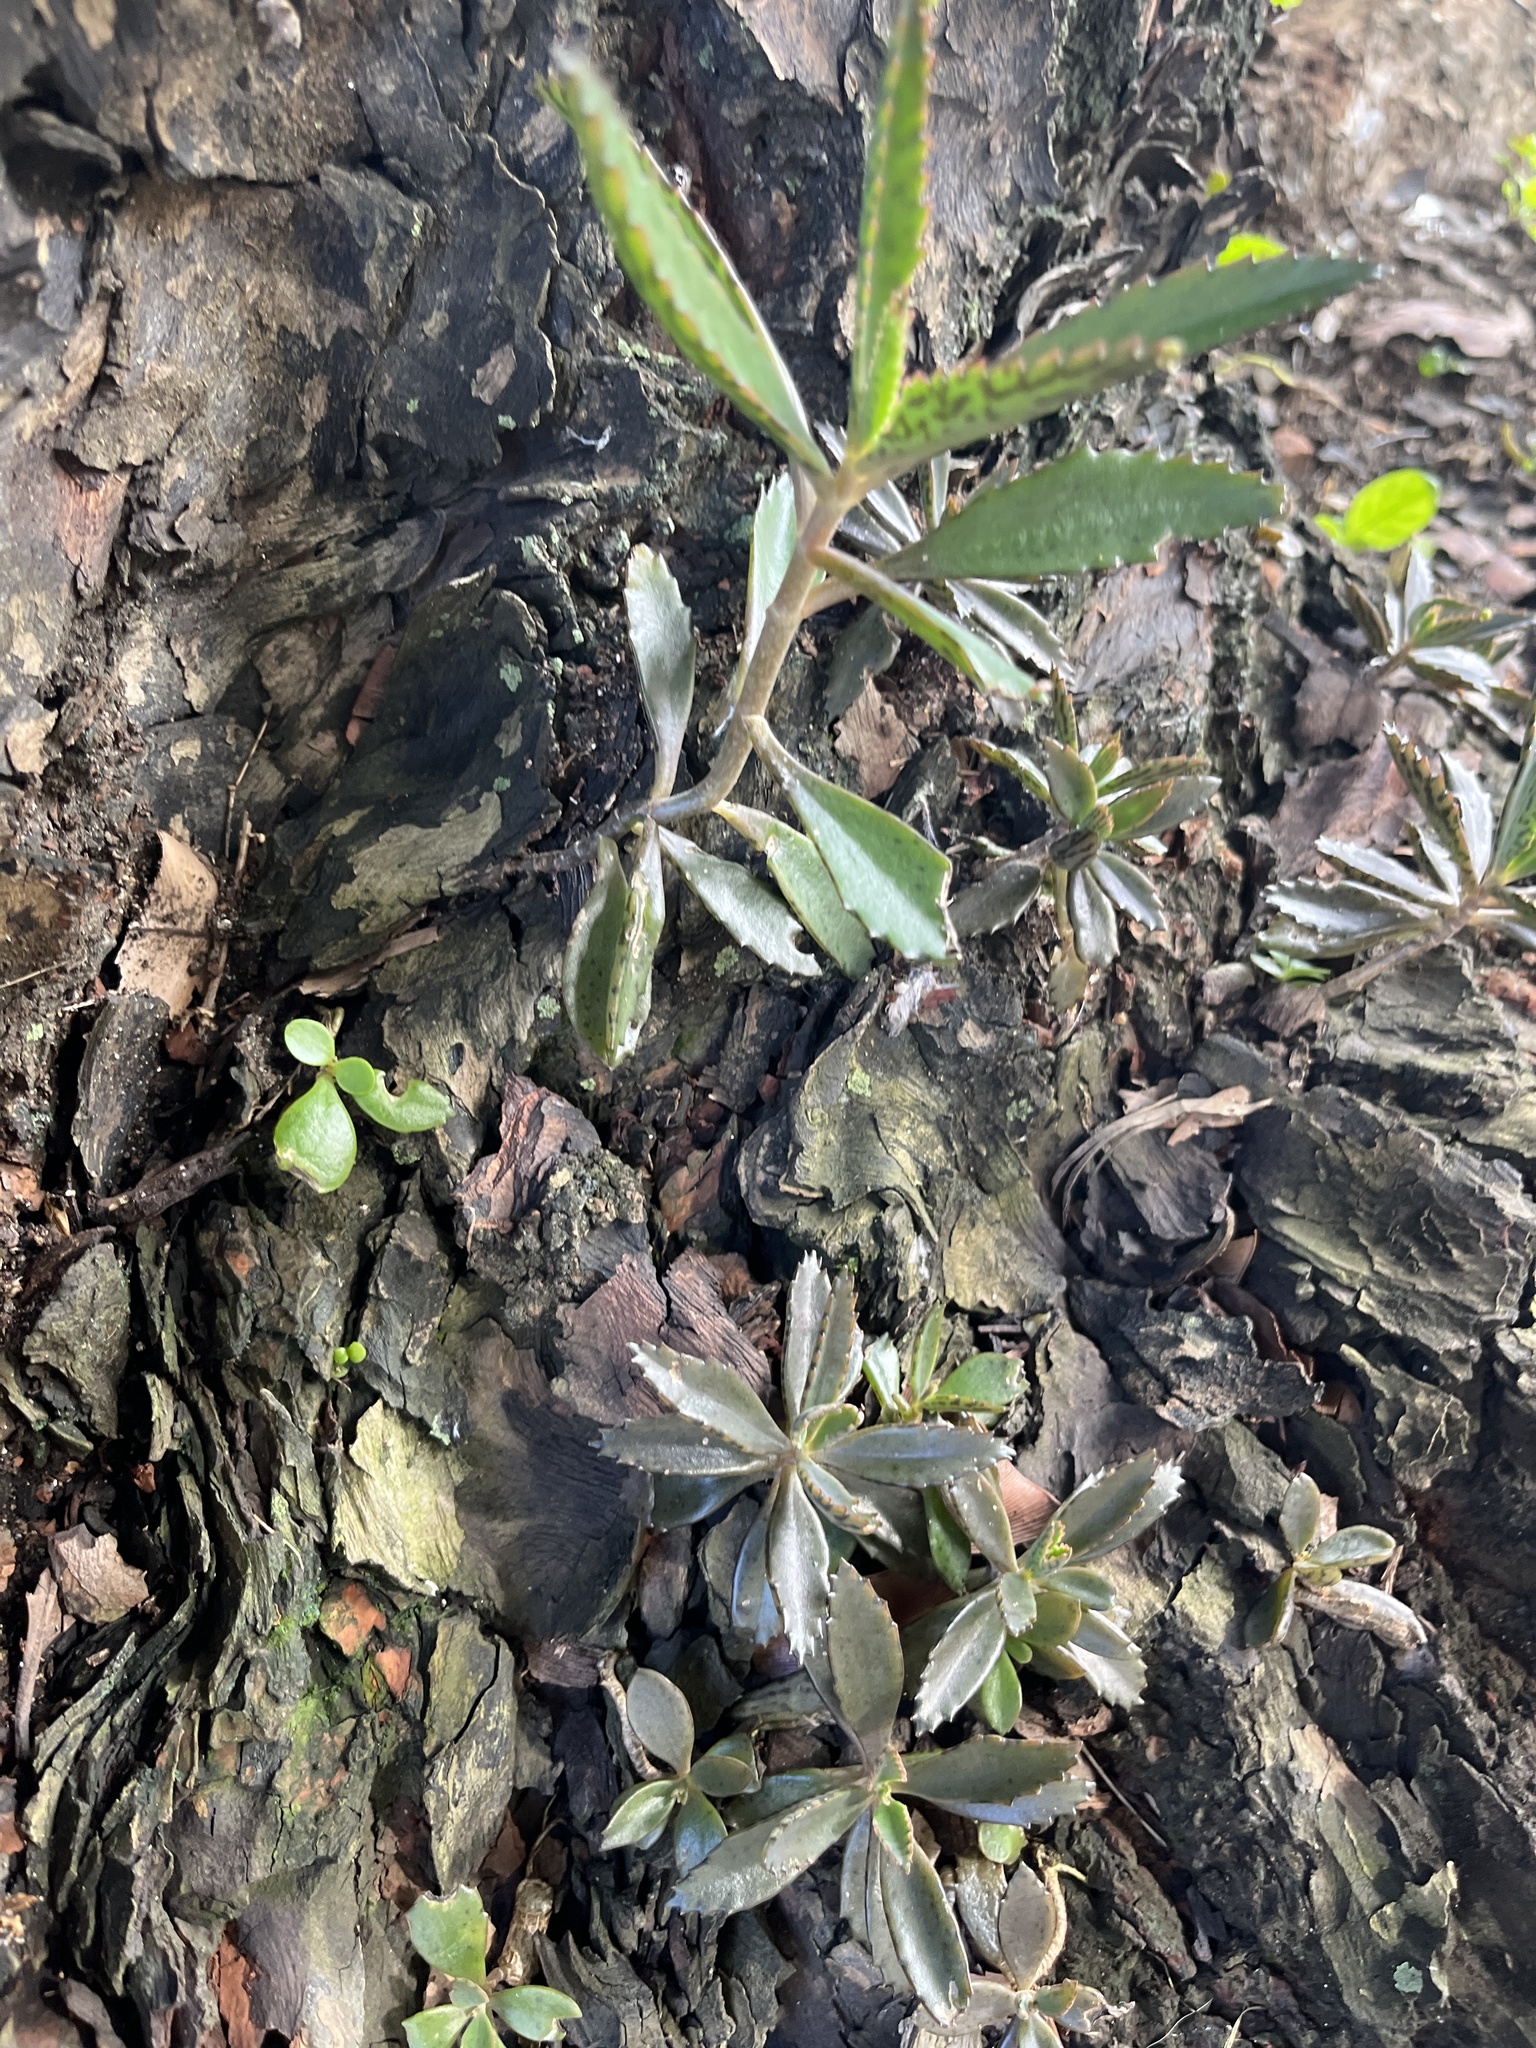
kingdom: Plantae
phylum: Tracheophyta
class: Magnoliopsida
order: Saxifragales
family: Crassulaceae
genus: Kalanchoe
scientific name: Kalanchoe houghtonii
